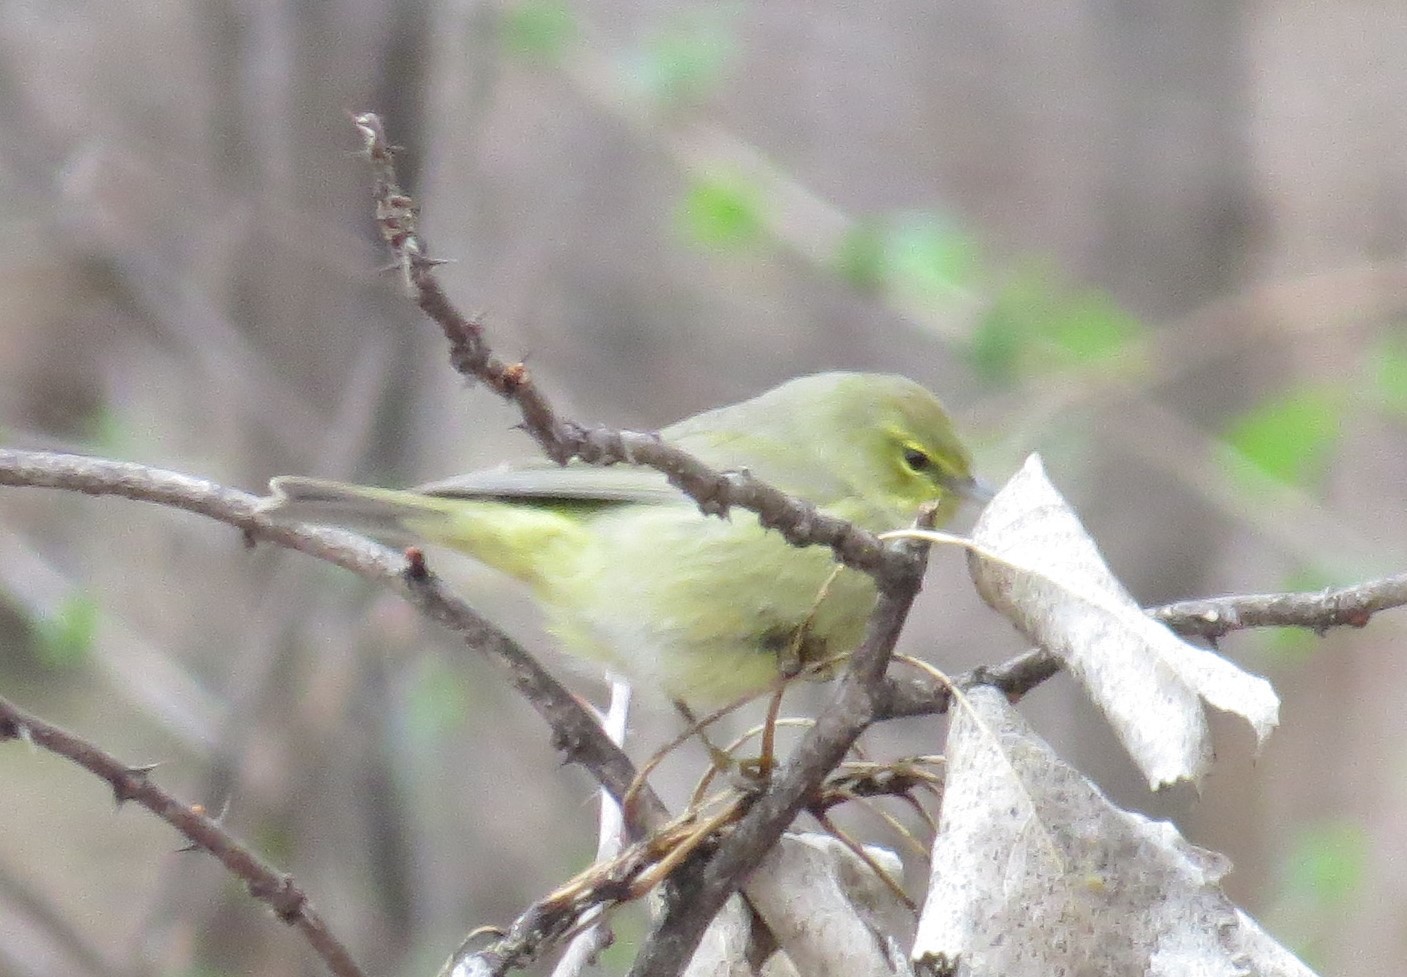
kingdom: Animalia
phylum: Chordata
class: Aves
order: Passeriformes
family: Parulidae
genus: Leiothlypis
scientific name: Leiothlypis celata
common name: Orange-crowned warbler
